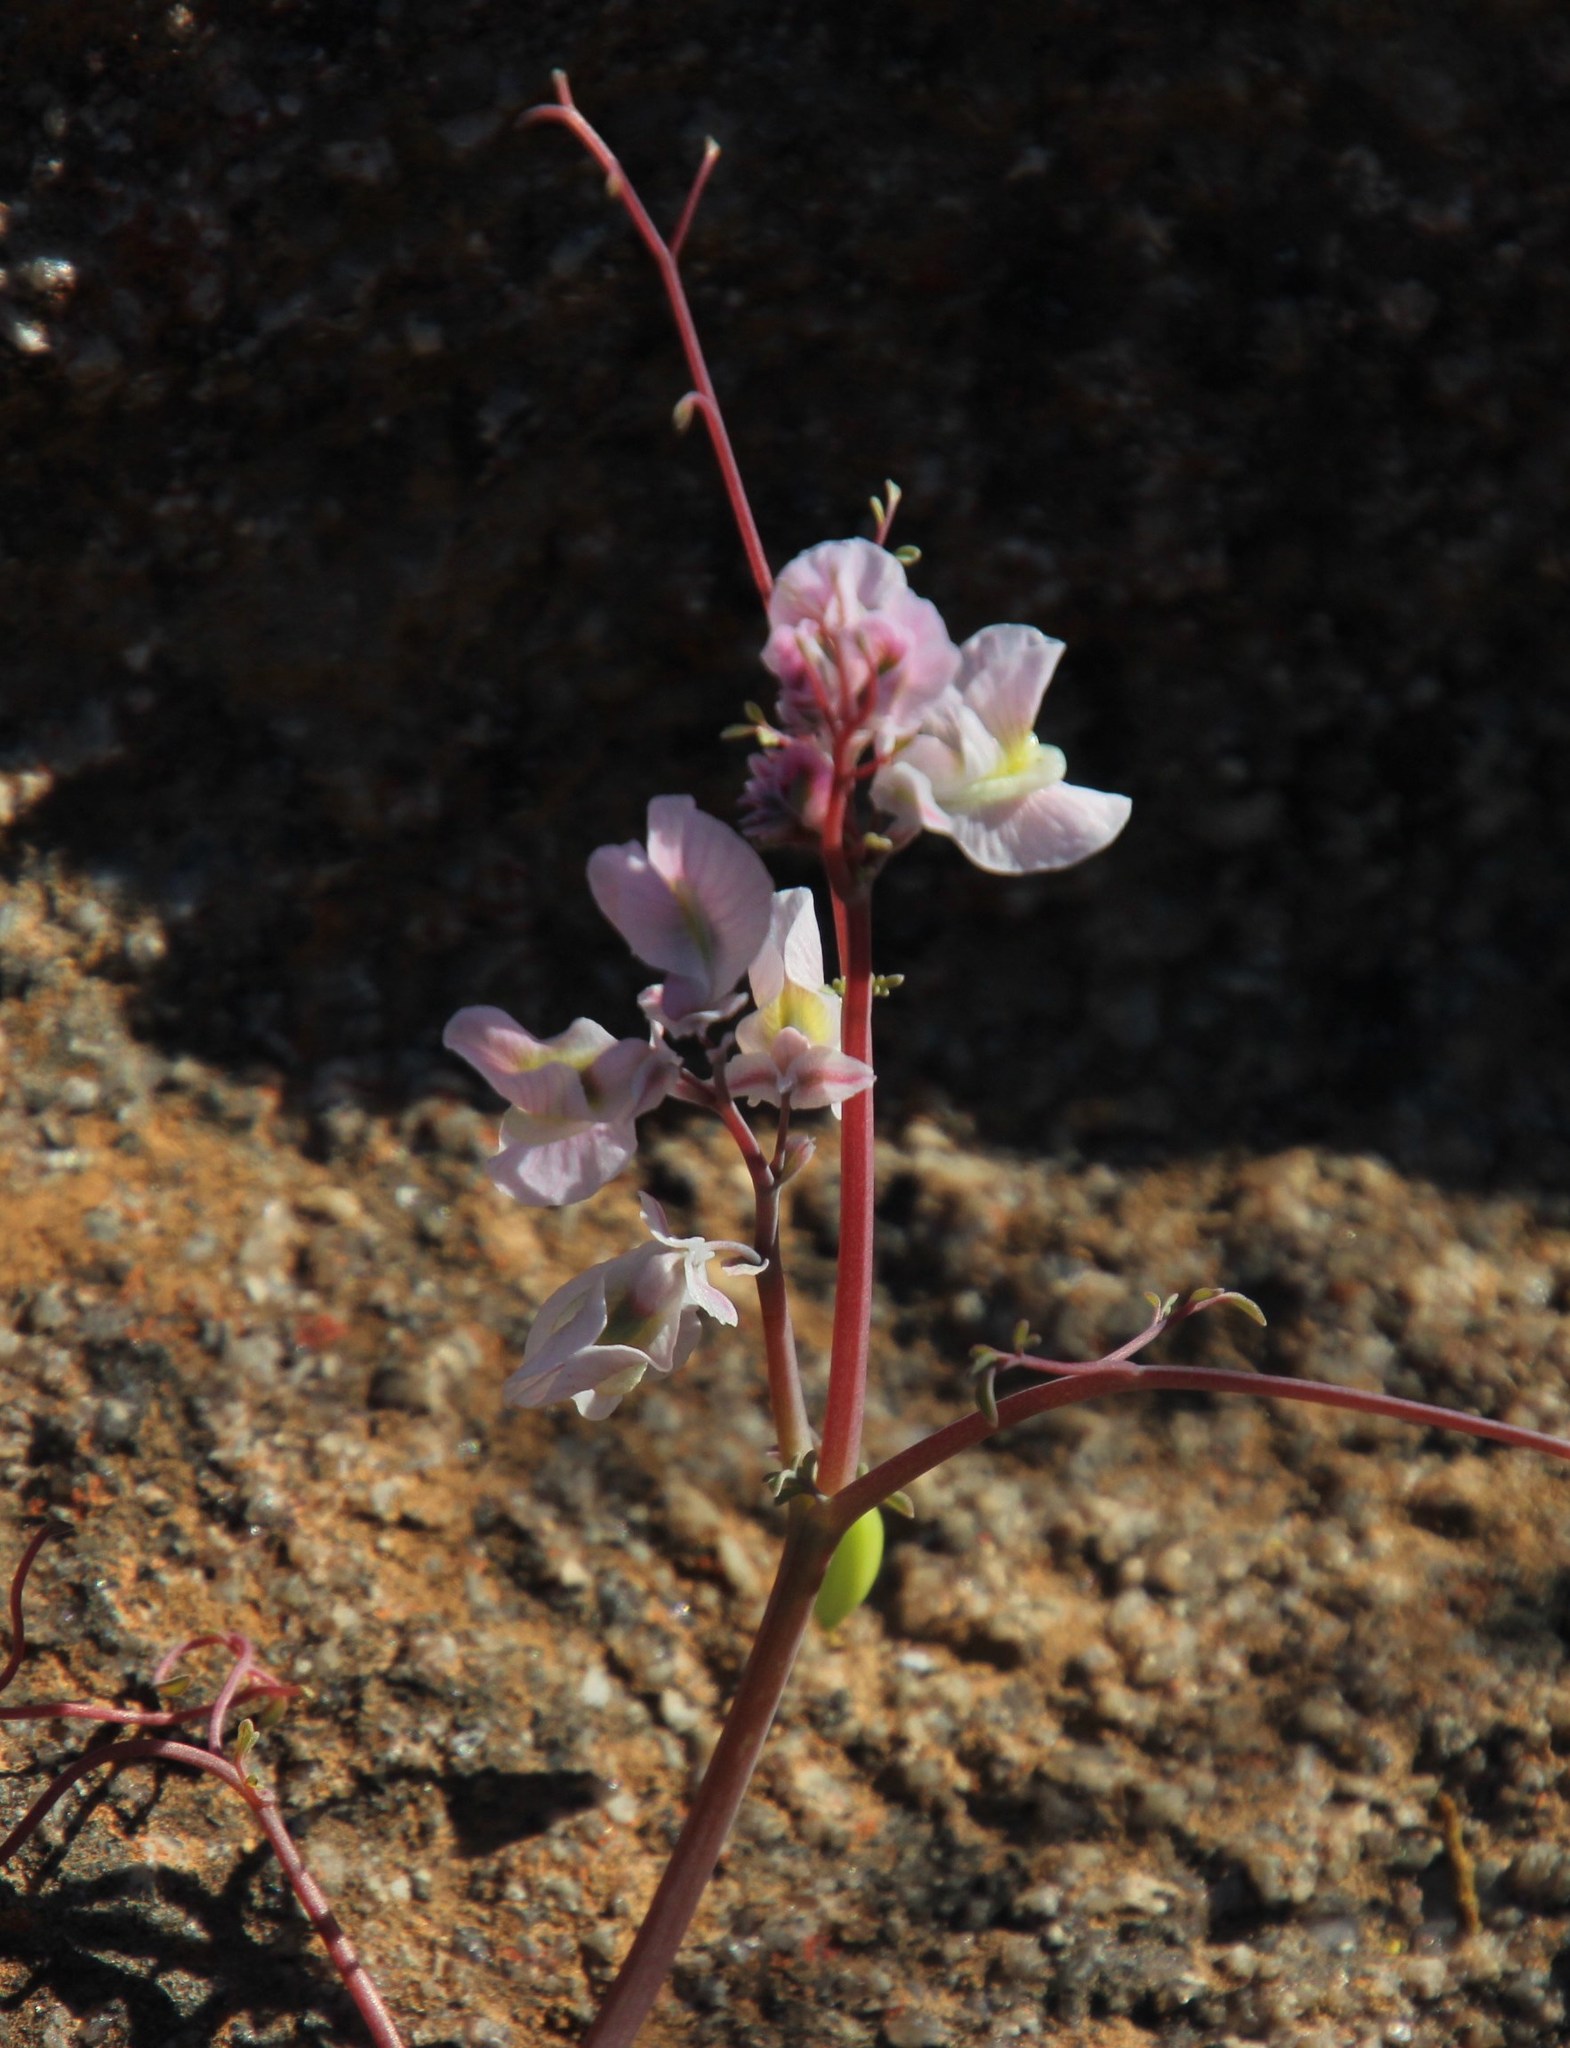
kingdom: Plantae
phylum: Tracheophyta
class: Magnoliopsida
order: Ranunculales
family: Papaveraceae
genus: Cysticapnos
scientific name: Cysticapnos vesicaria
